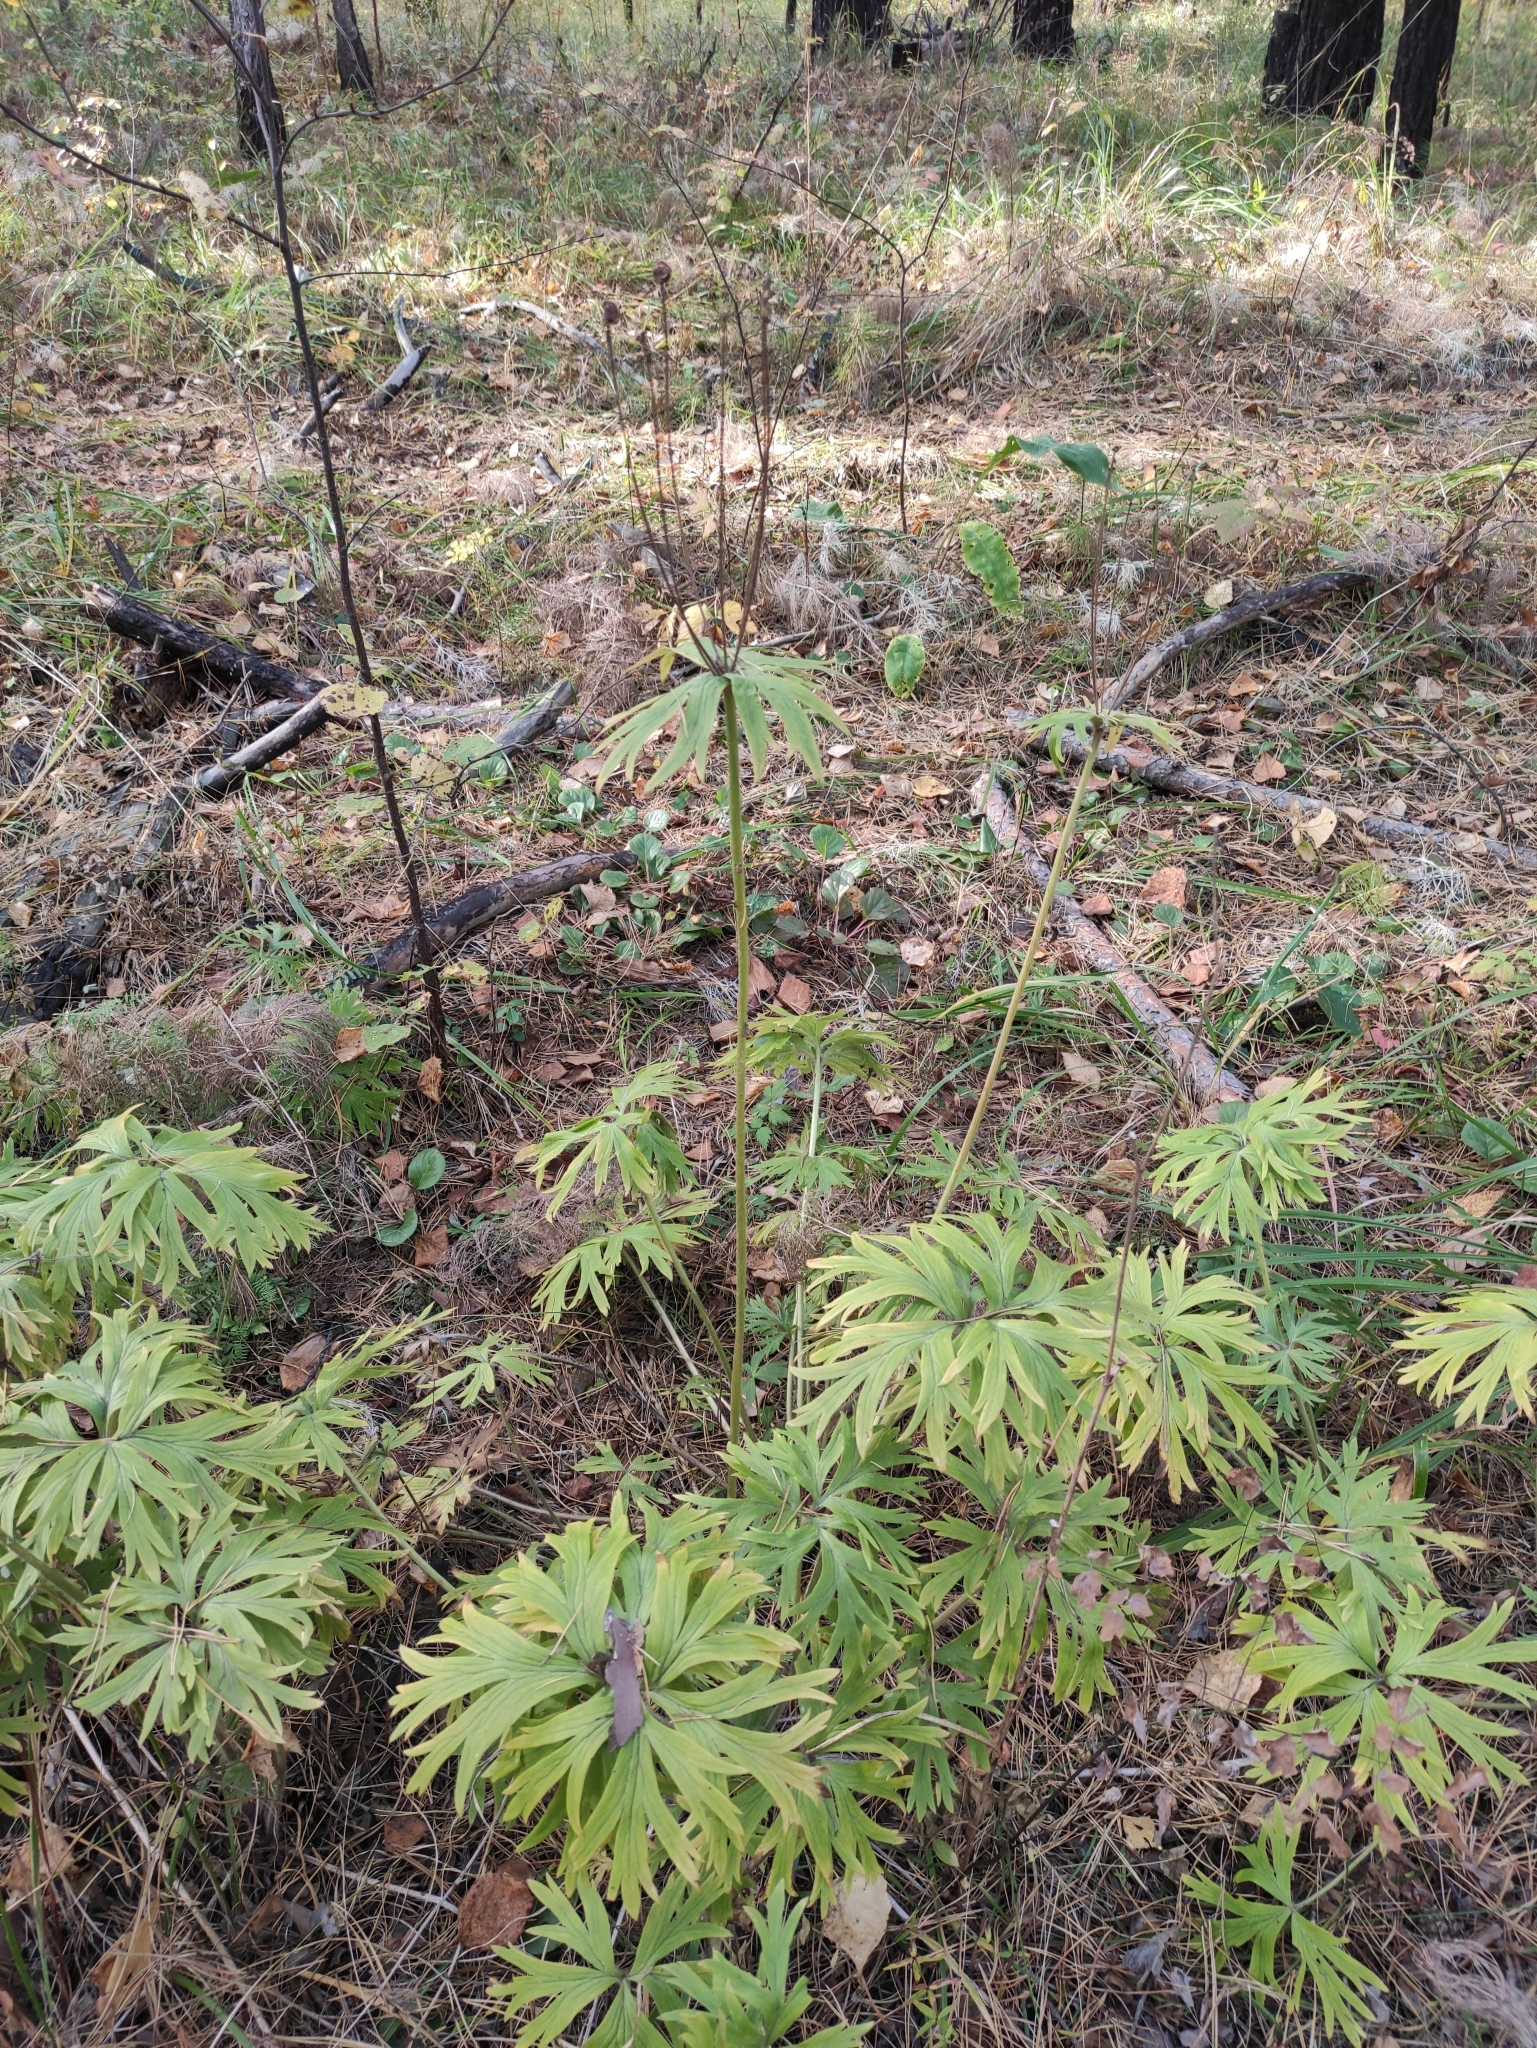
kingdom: Plantae
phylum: Tracheophyta
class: Magnoliopsida
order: Ranunculales
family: Ranunculaceae
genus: Anemonastrum
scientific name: Anemonastrum narcissiflorum
